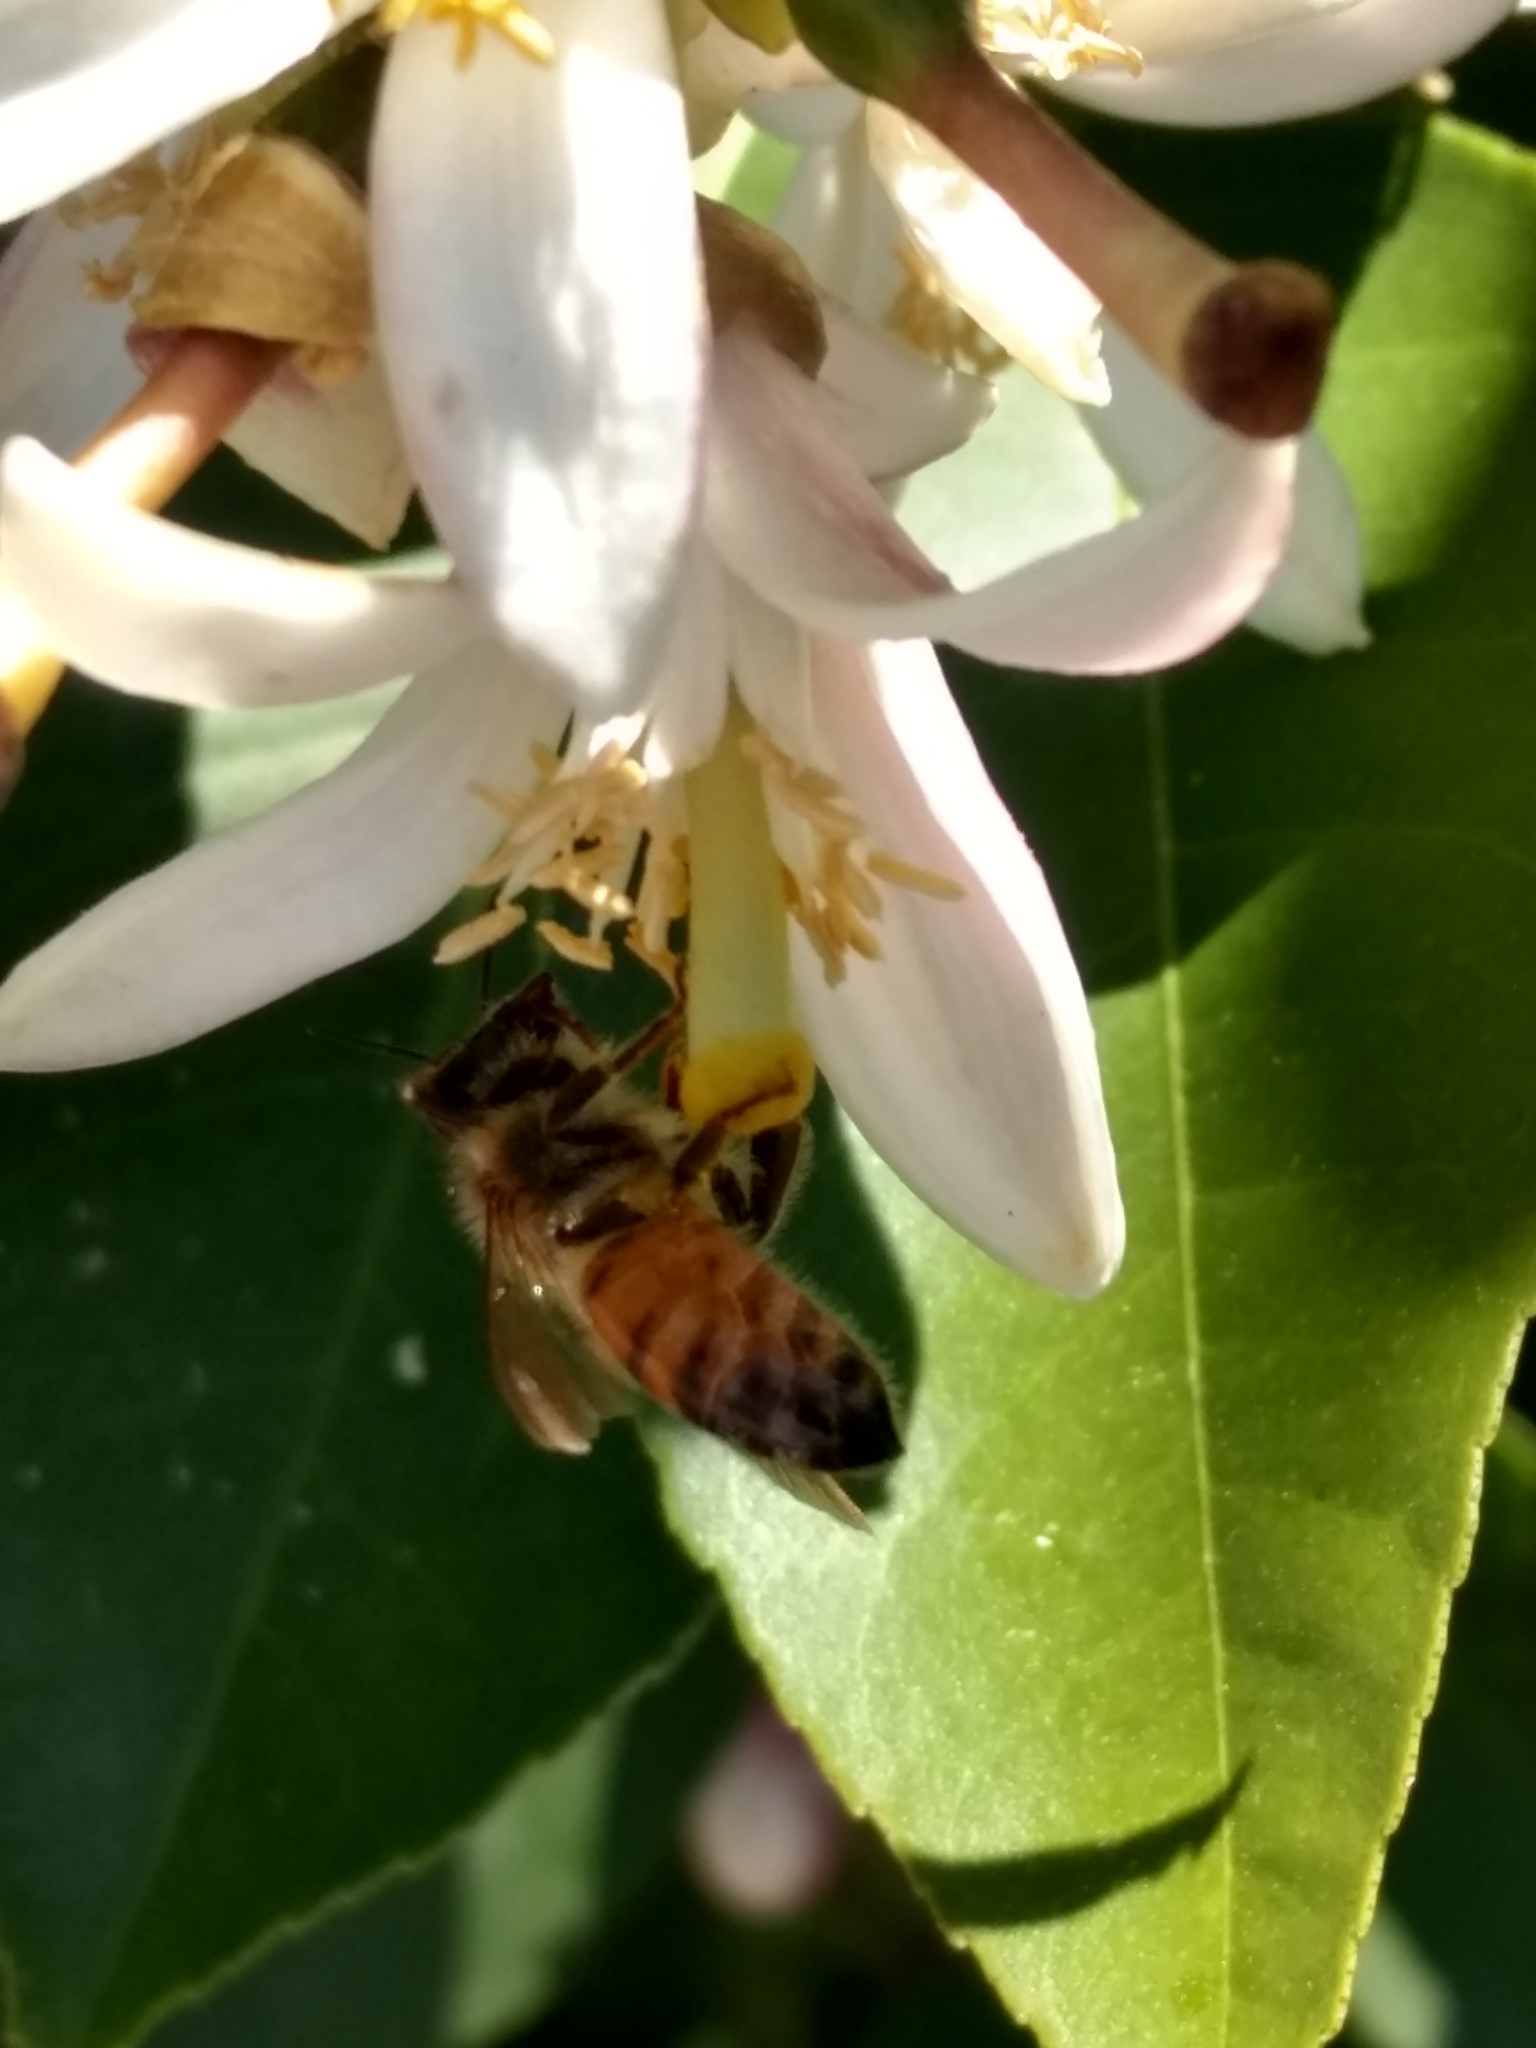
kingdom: Animalia
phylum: Arthropoda
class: Insecta
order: Hymenoptera
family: Apidae
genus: Apis
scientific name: Apis mellifera
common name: Honey bee
